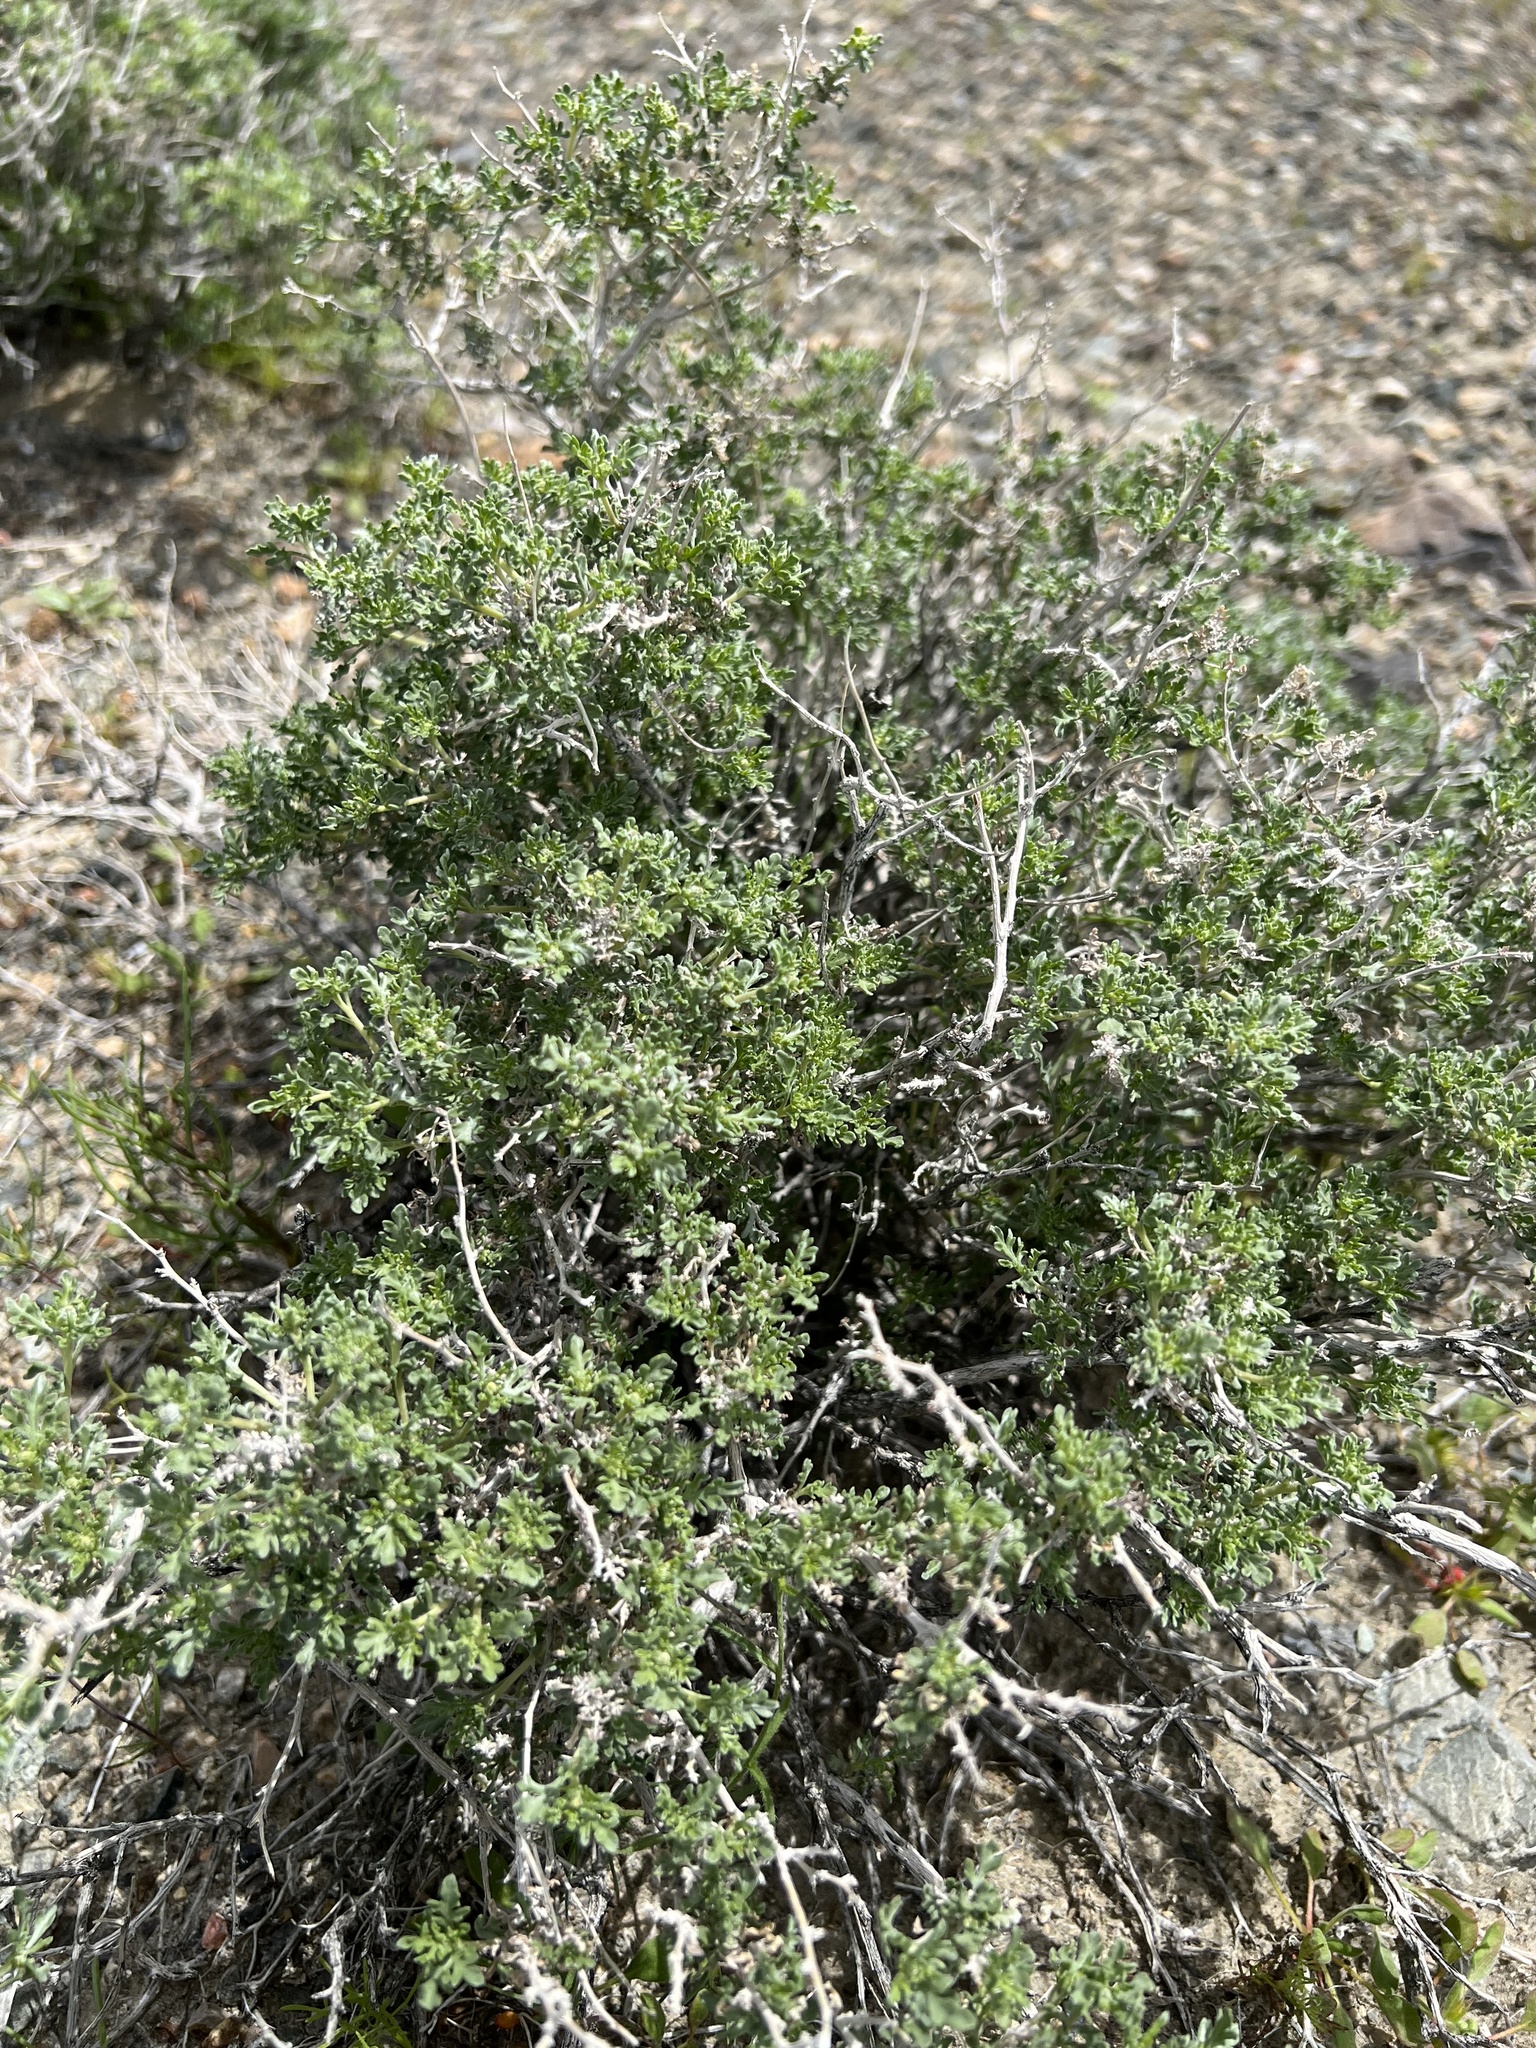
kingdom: Plantae
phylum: Tracheophyta
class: Magnoliopsida
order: Asterales
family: Asteraceae
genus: Ambrosia
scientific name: Ambrosia dumosa
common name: Bur-sage
